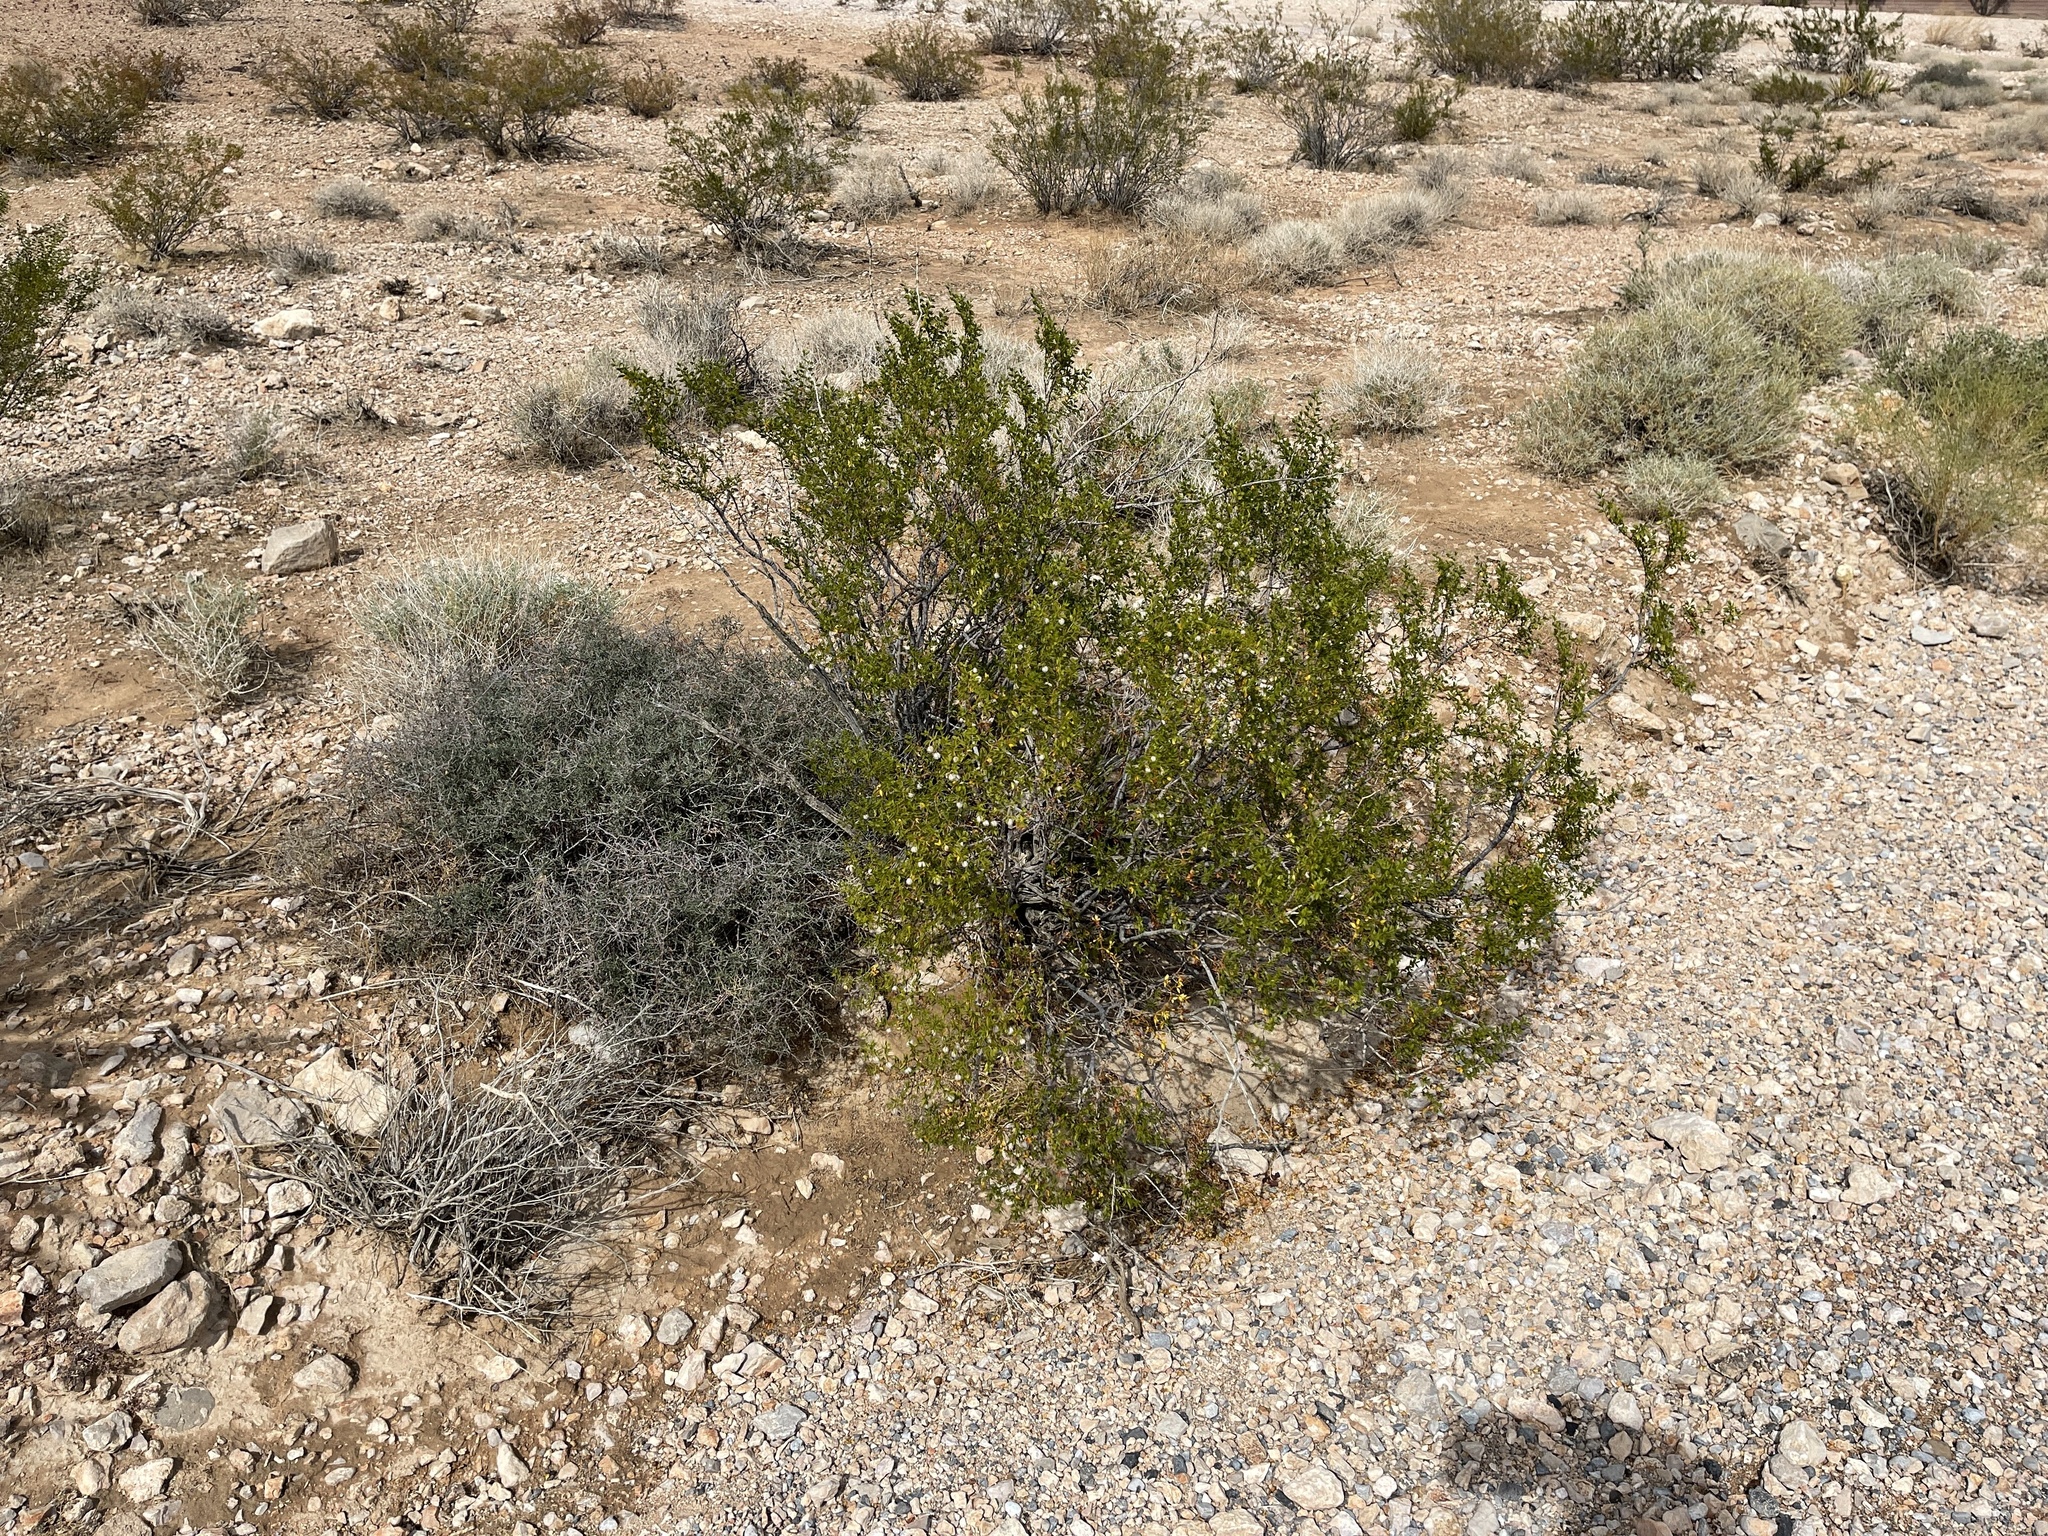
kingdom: Plantae
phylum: Tracheophyta
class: Magnoliopsida
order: Zygophyllales
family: Zygophyllaceae
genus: Larrea
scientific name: Larrea tridentata
